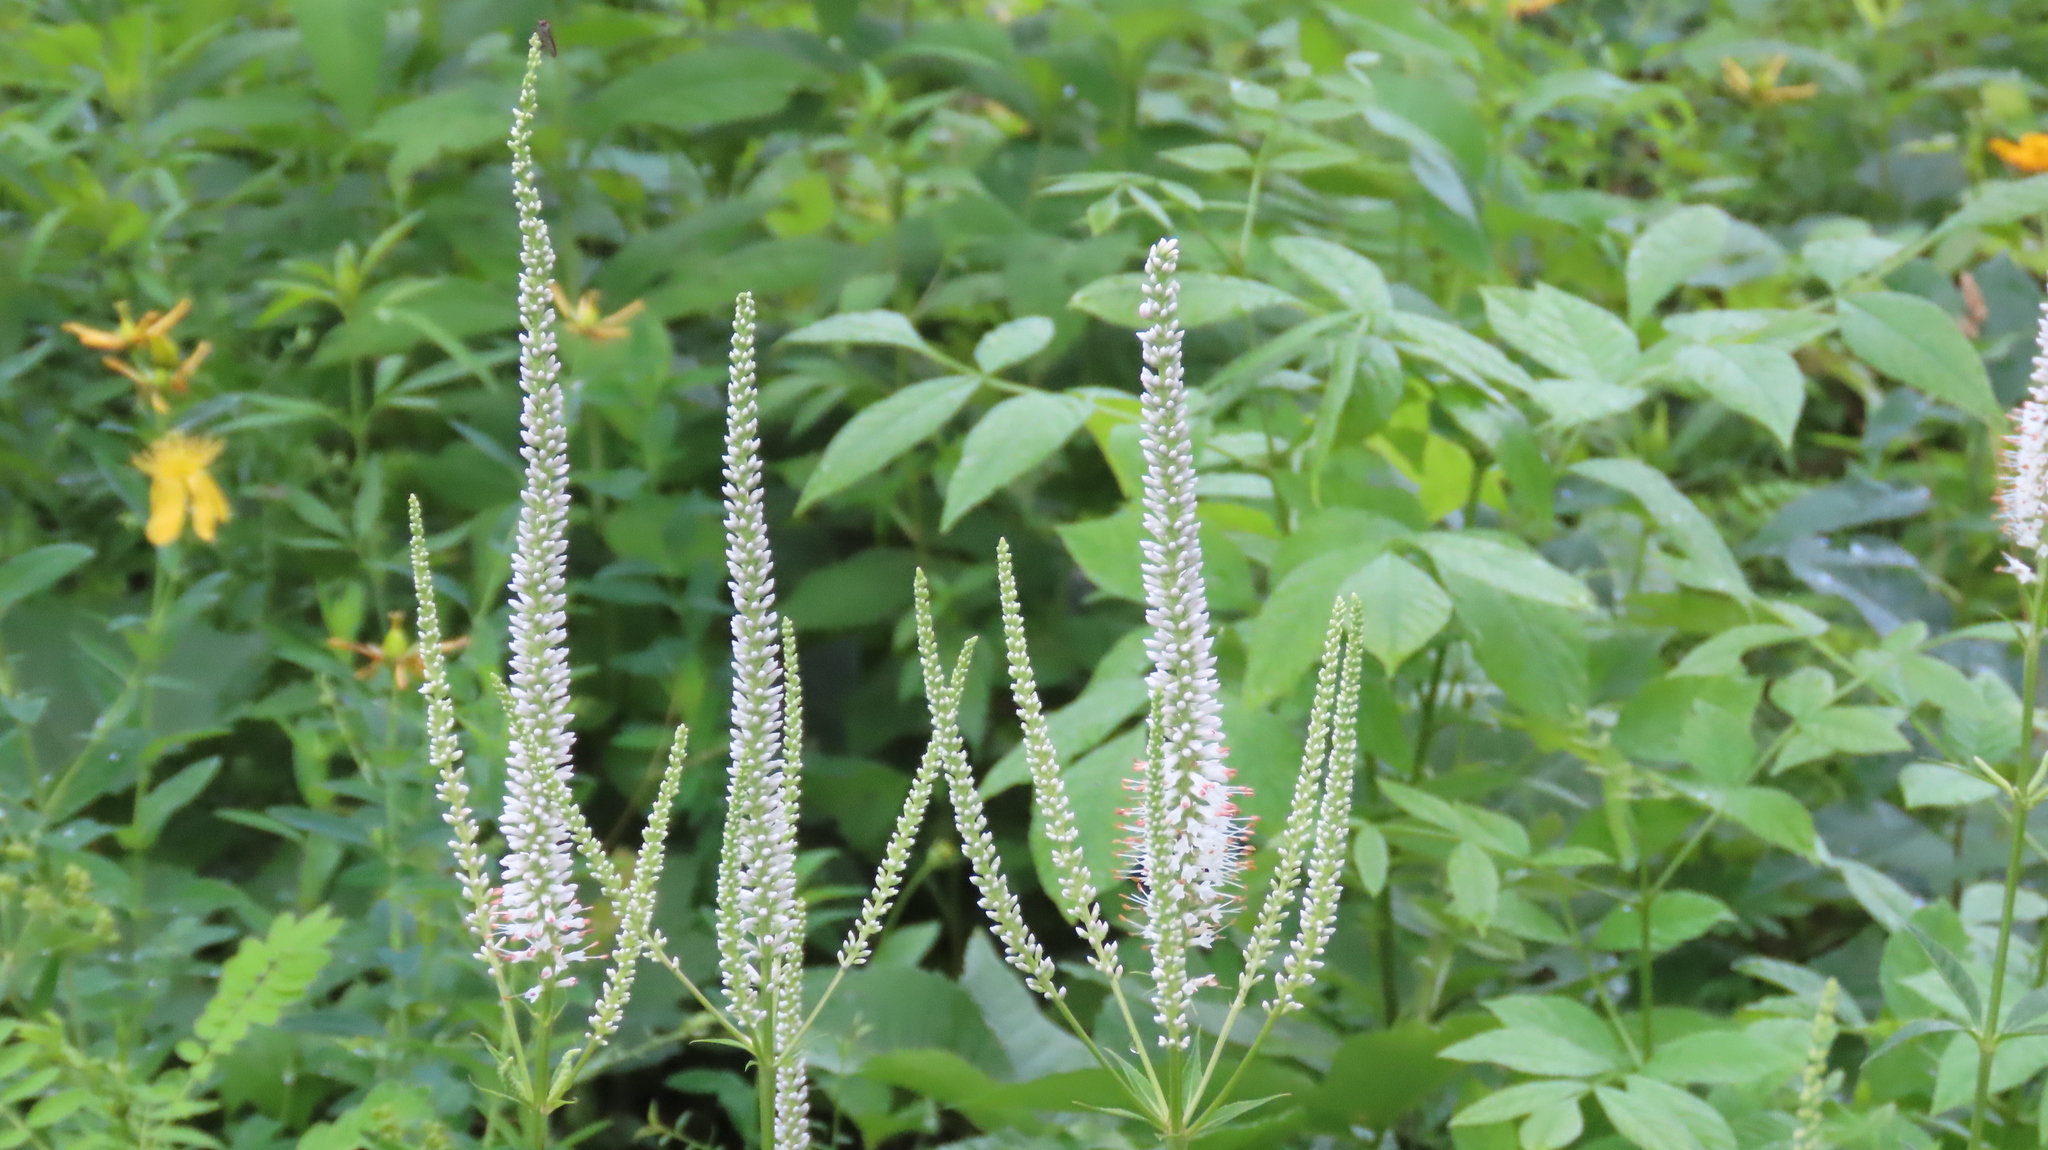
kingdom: Plantae
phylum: Tracheophyta
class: Magnoliopsida
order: Lamiales
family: Plantaginaceae
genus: Veronicastrum
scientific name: Veronicastrum virginicum
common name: Blackroot
